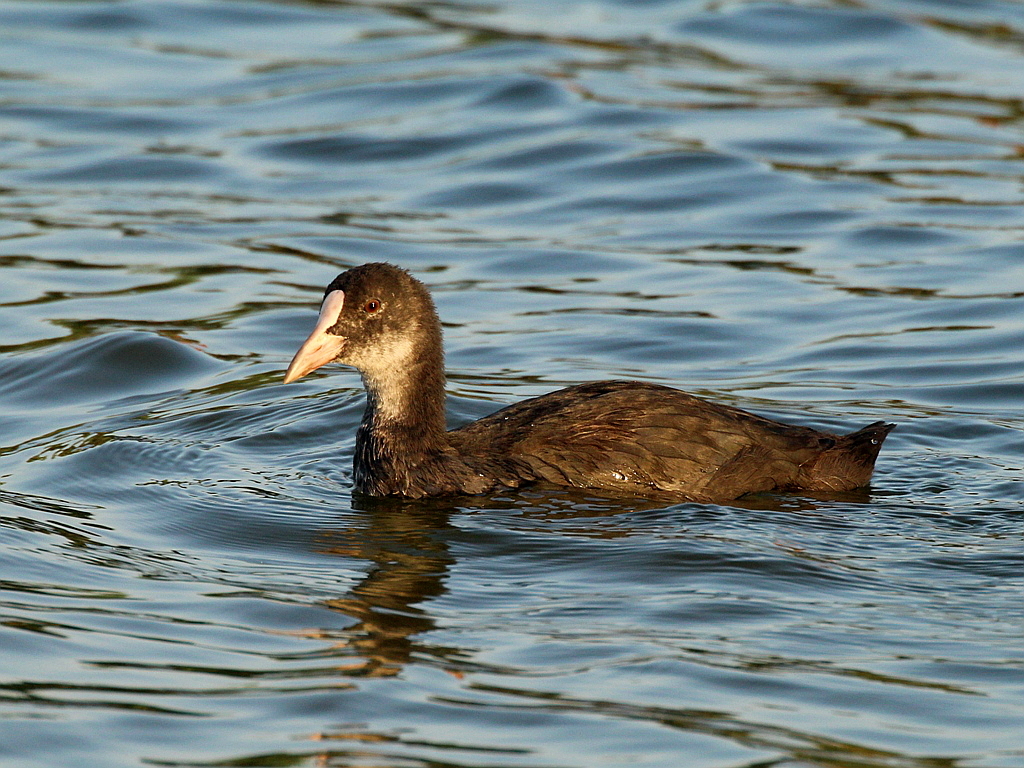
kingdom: Animalia
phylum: Chordata
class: Aves
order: Gruiformes
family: Rallidae
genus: Fulica
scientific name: Fulica atra
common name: Eurasian coot
